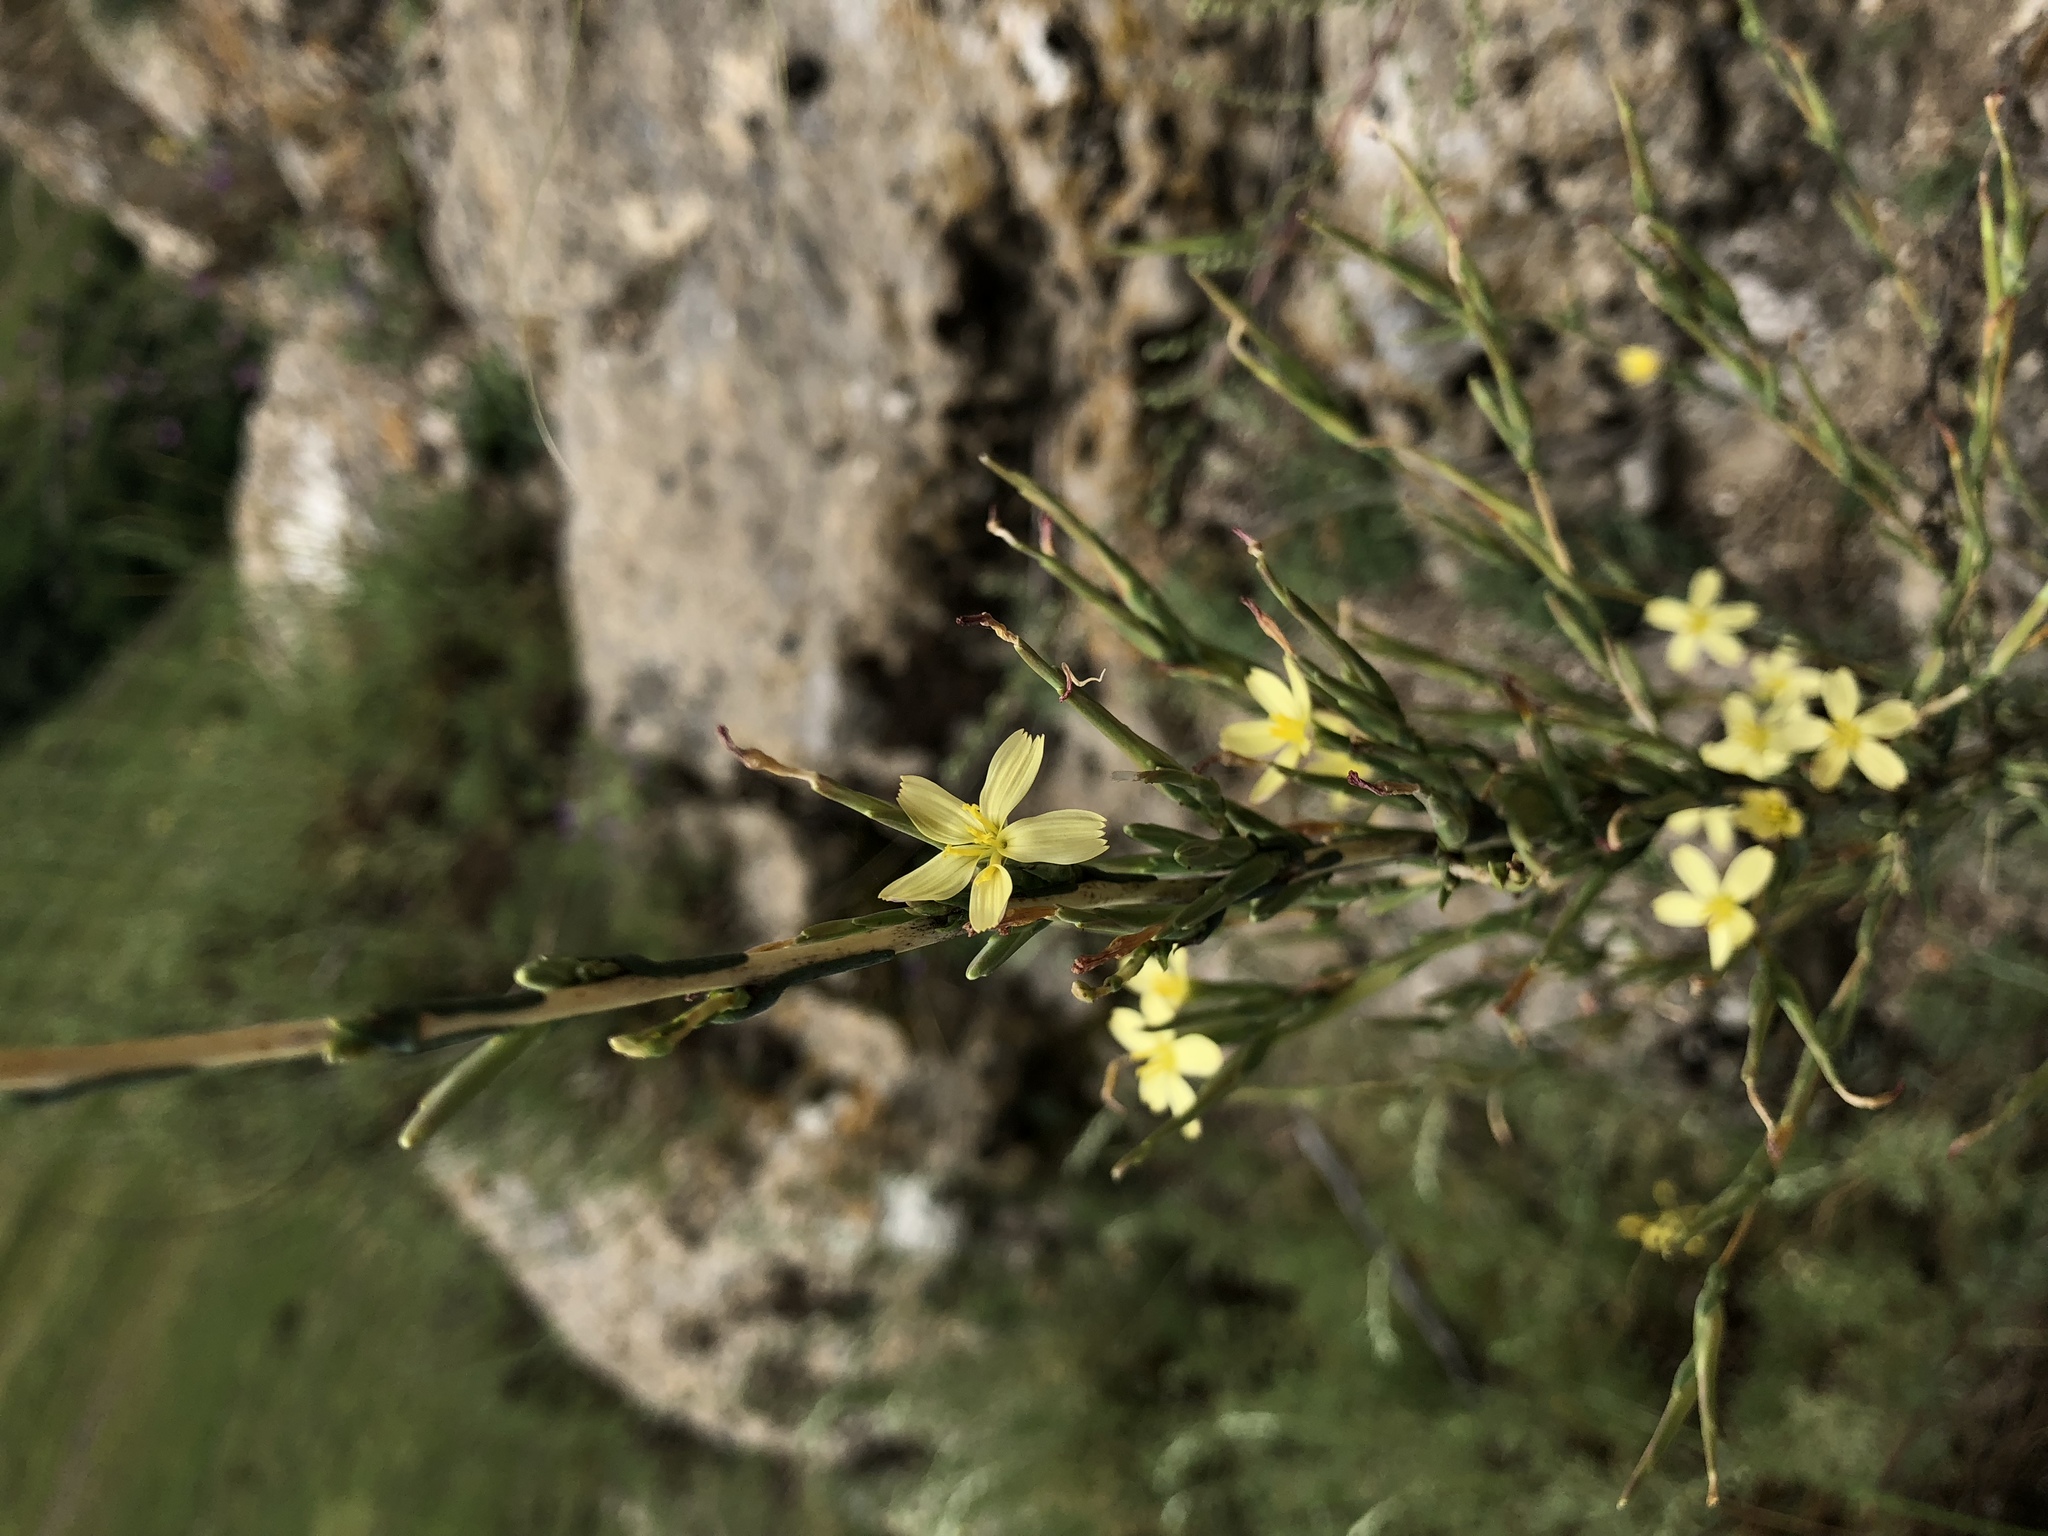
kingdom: Plantae
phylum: Tracheophyta
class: Magnoliopsida
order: Asterales
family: Asteraceae
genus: Mycelis
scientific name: Mycelis muralis
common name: Wall lettuce
